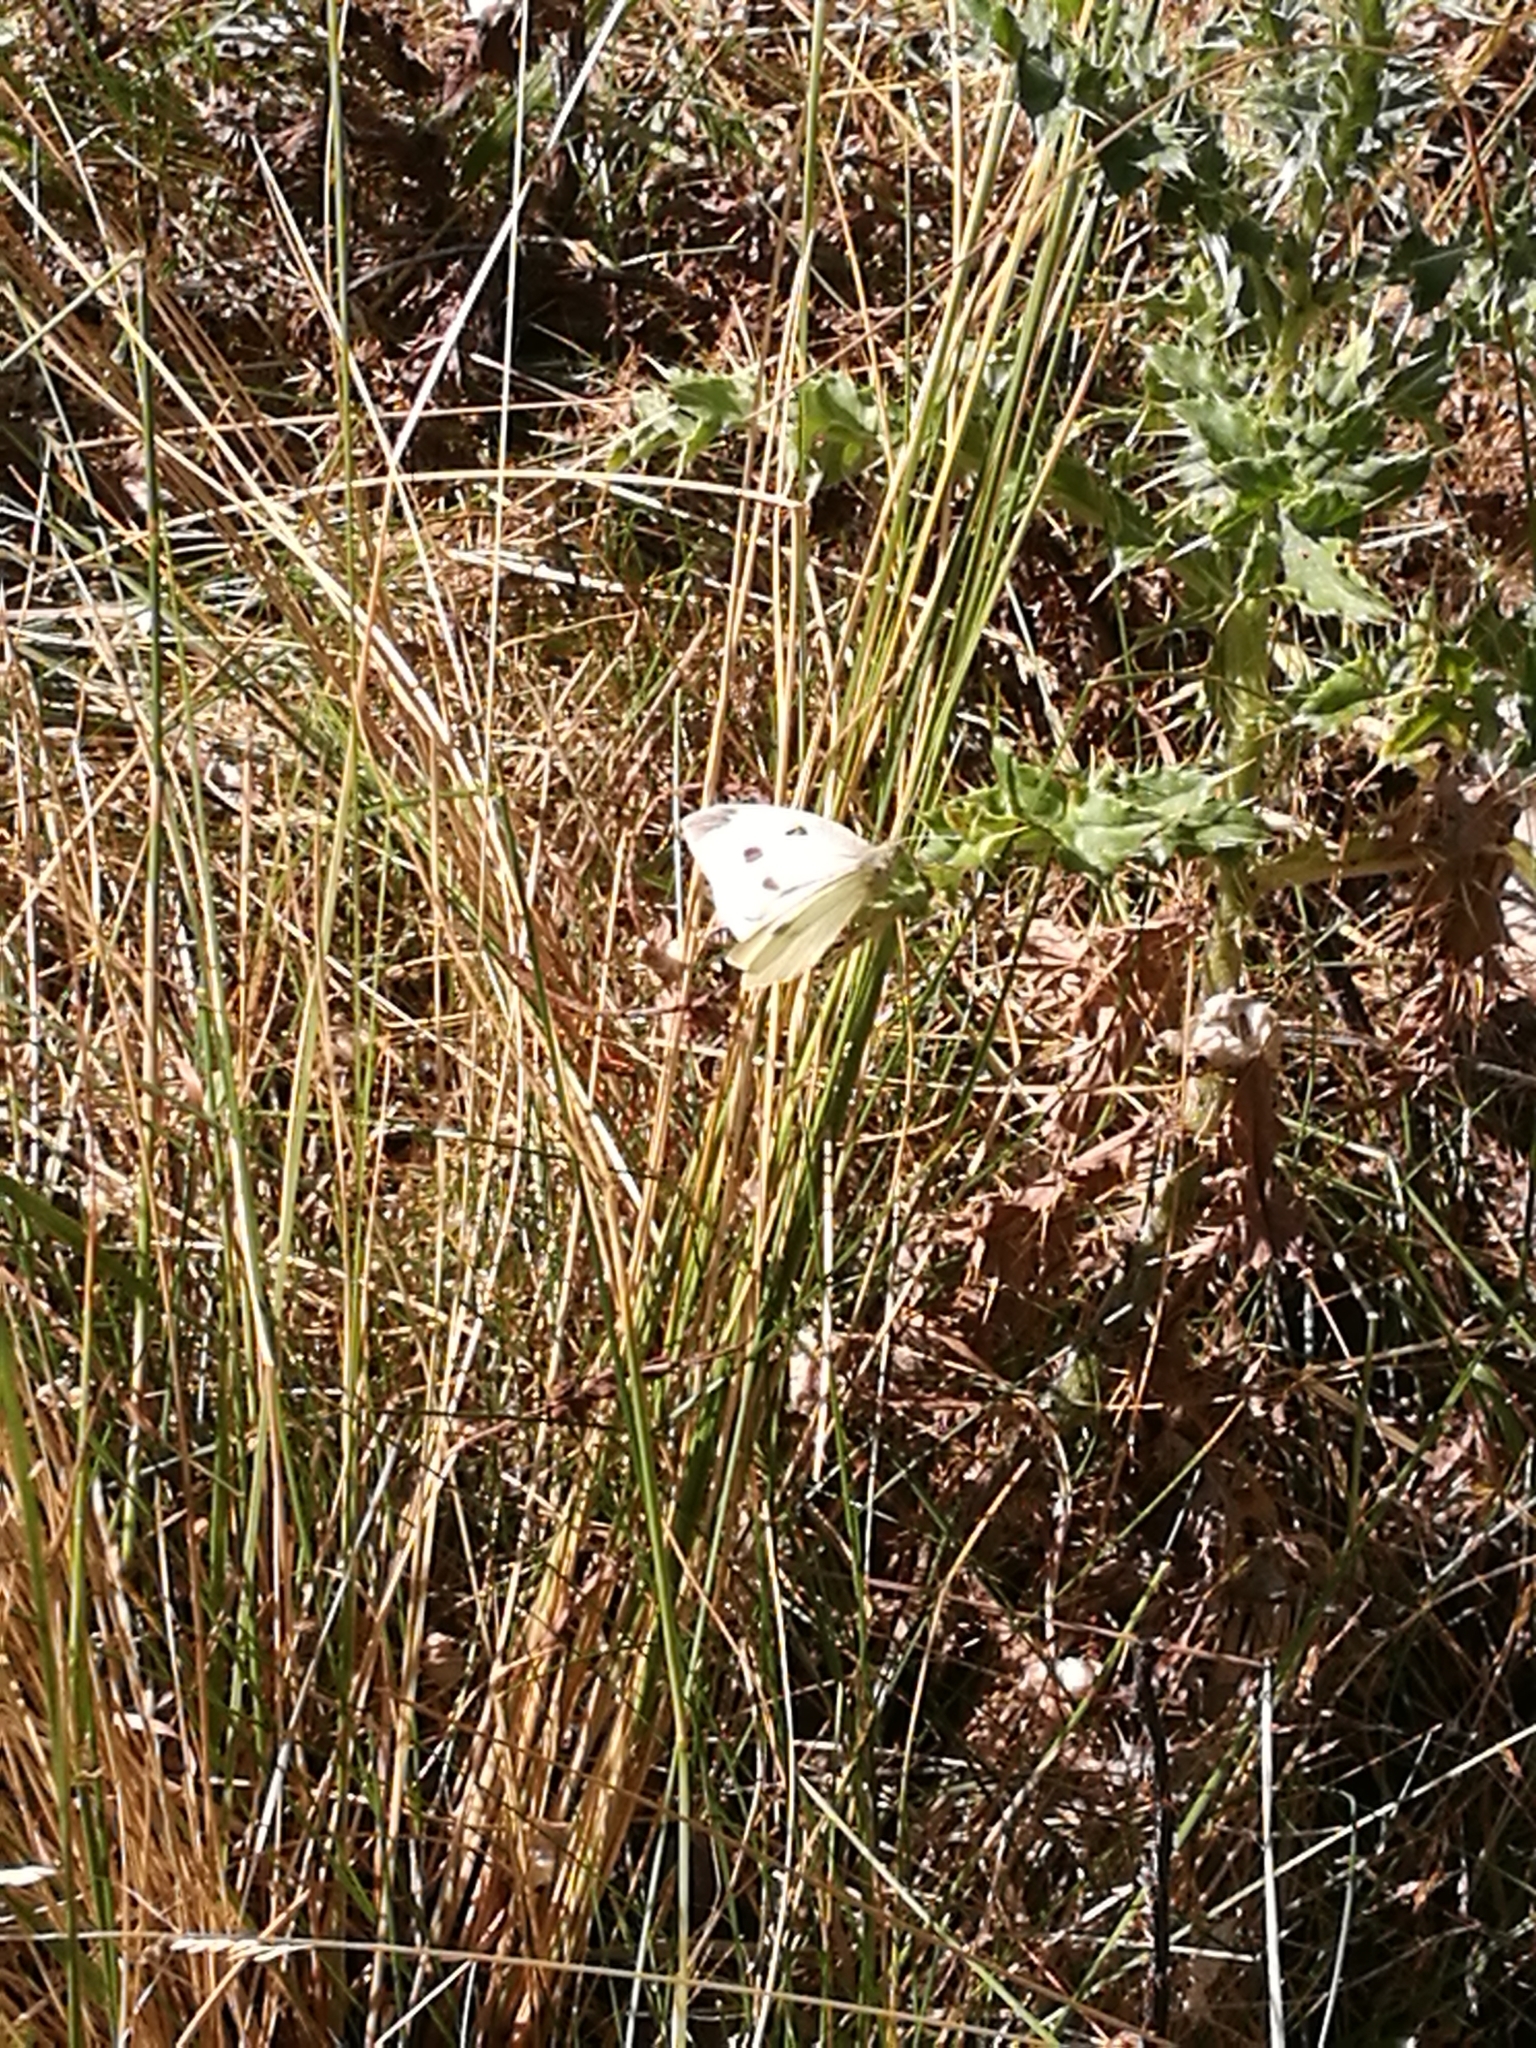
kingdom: Animalia
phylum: Arthropoda
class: Insecta
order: Lepidoptera
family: Pieridae
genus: Pieris
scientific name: Pieris rapae
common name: Small white
